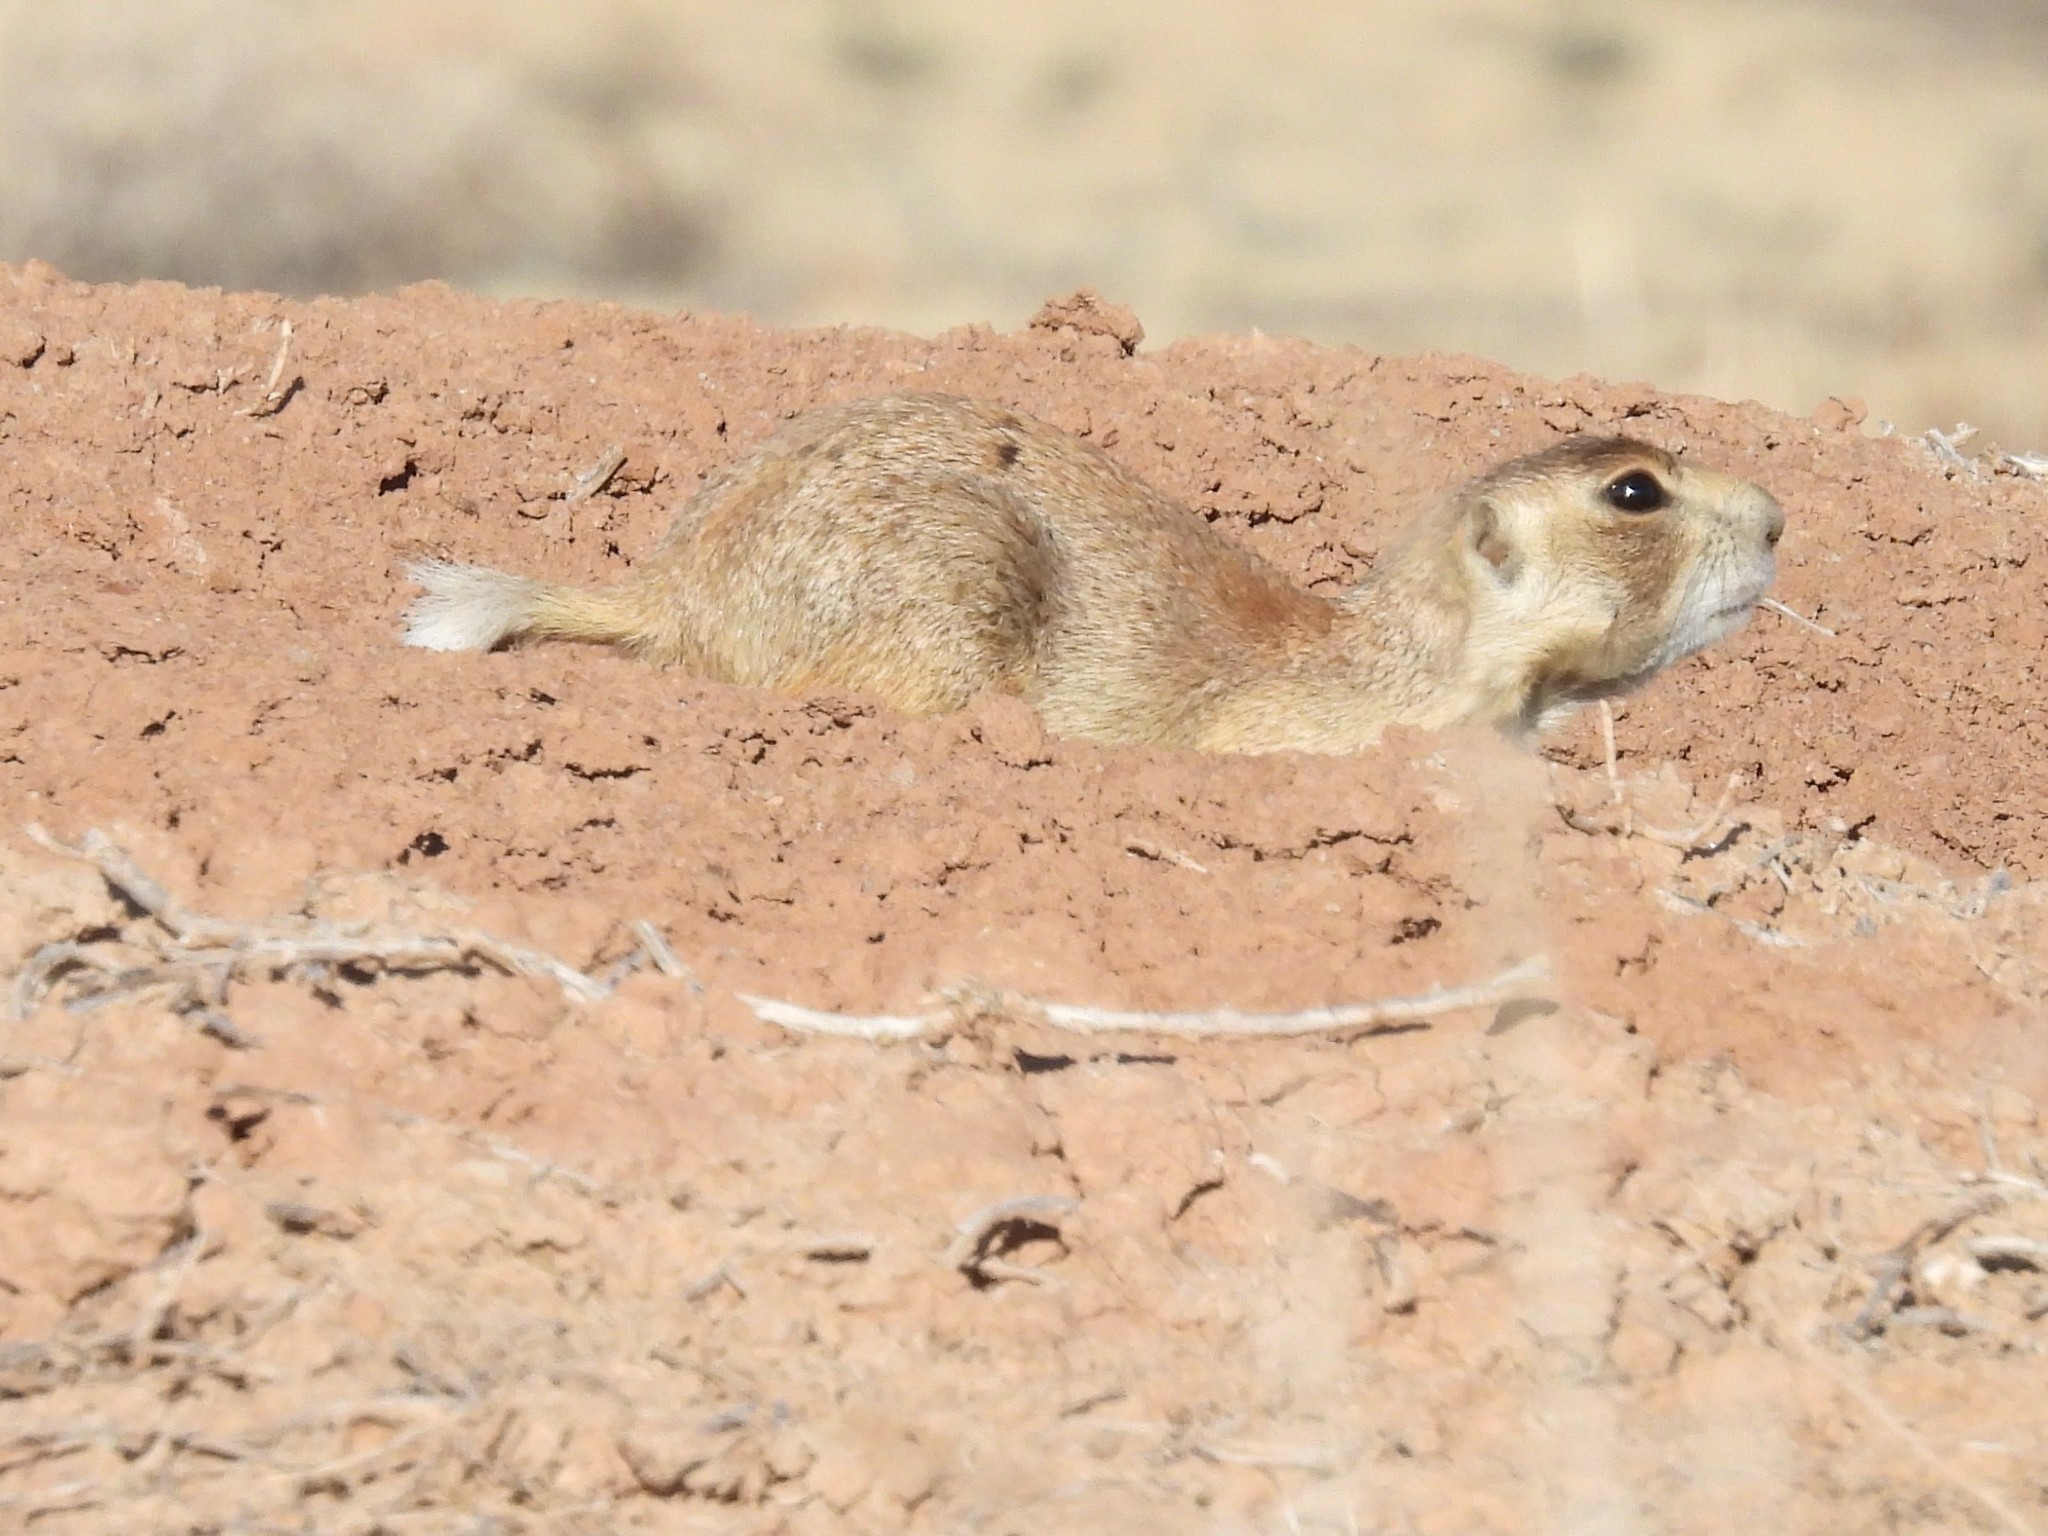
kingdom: Animalia
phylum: Chordata
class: Mammalia
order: Rodentia
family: Sciuridae
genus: Cynomys
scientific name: Cynomys leucurus
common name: White-tailed prairie dog
